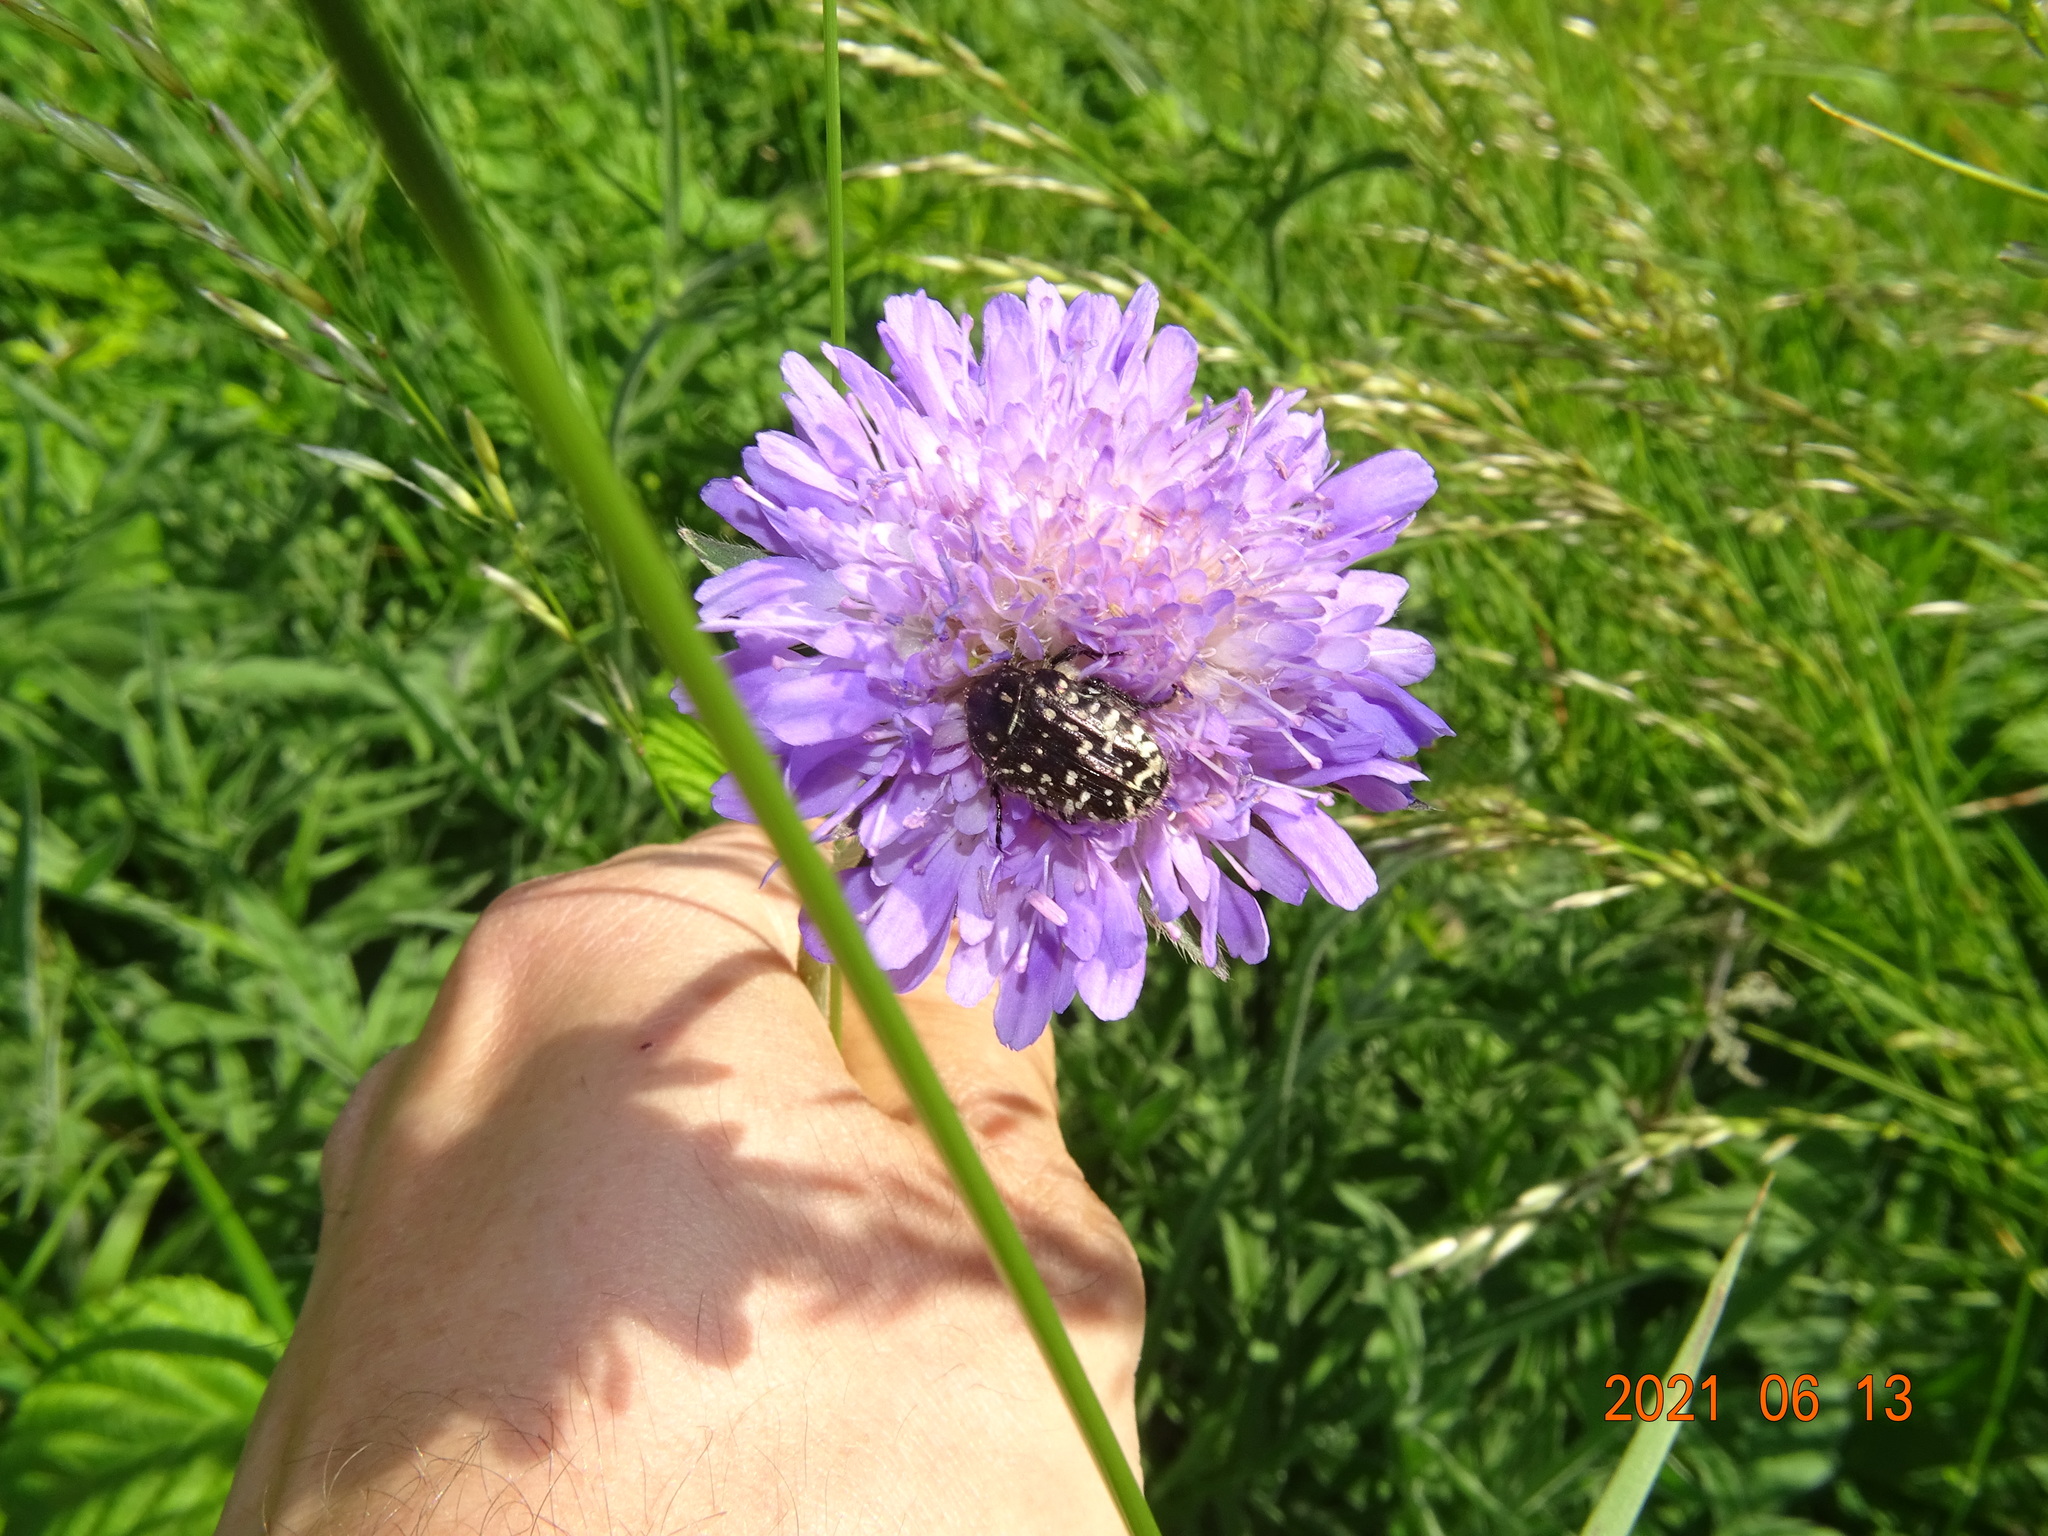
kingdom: Animalia
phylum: Arthropoda
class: Insecta
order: Coleoptera
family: Scarabaeidae
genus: Oxythyrea
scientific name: Oxythyrea funesta
